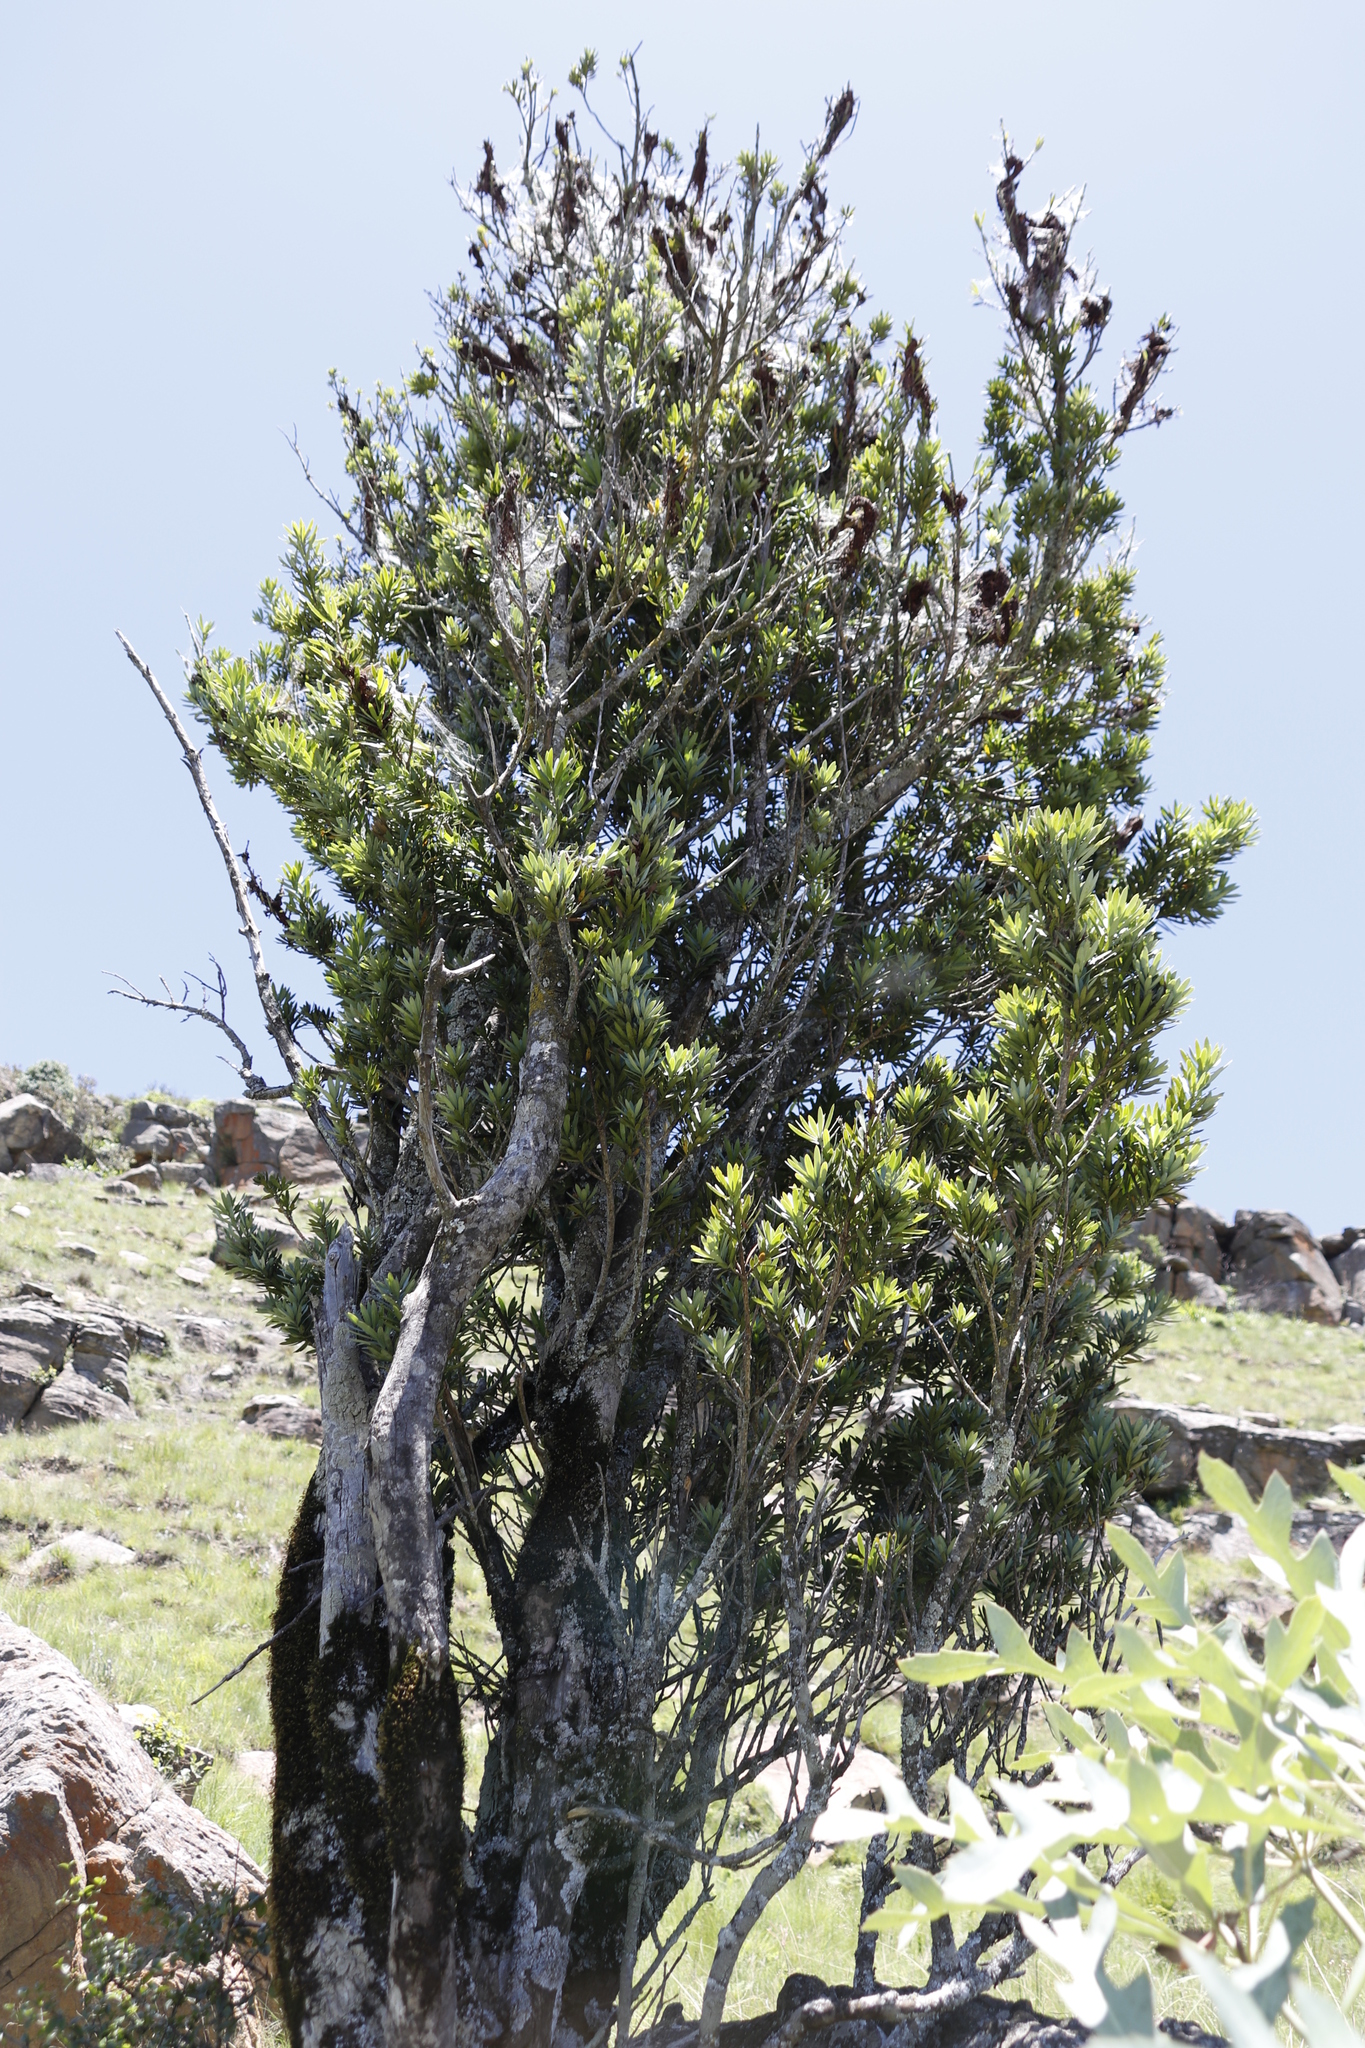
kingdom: Plantae
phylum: Tracheophyta
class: Pinopsida
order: Pinales
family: Podocarpaceae
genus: Podocarpus
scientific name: Podocarpus latifolius
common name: True yellowwood
